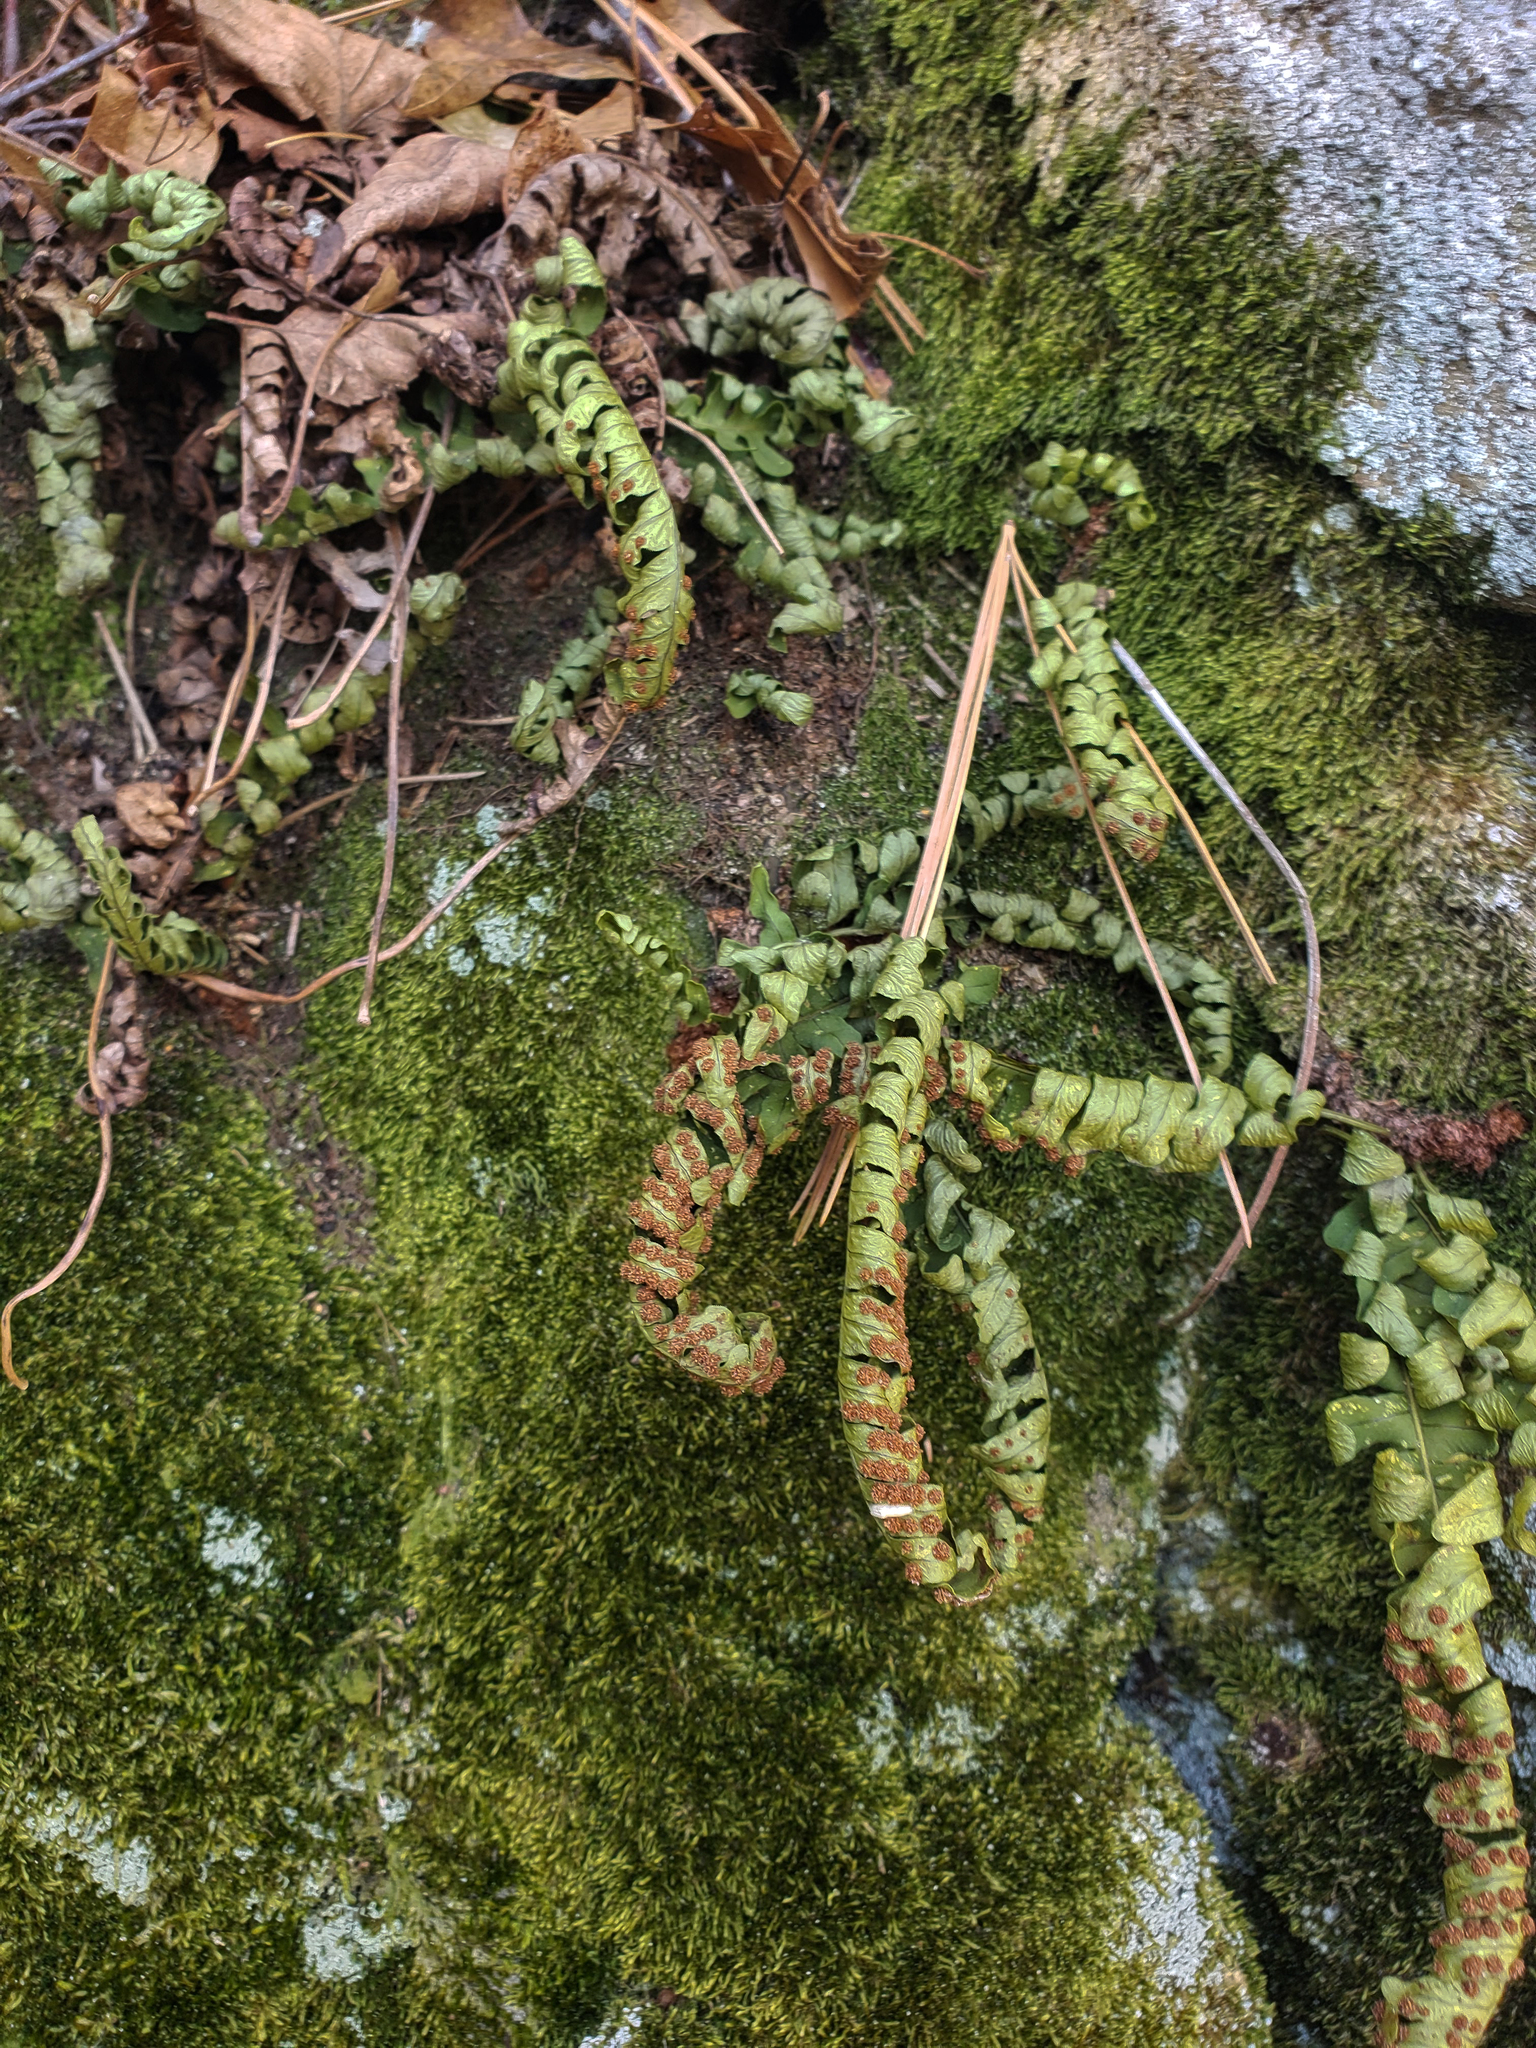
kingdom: Plantae
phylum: Tracheophyta
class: Polypodiopsida
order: Polypodiales
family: Polypodiaceae
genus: Polypodium
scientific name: Polypodium virginianum
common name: American wall fern
